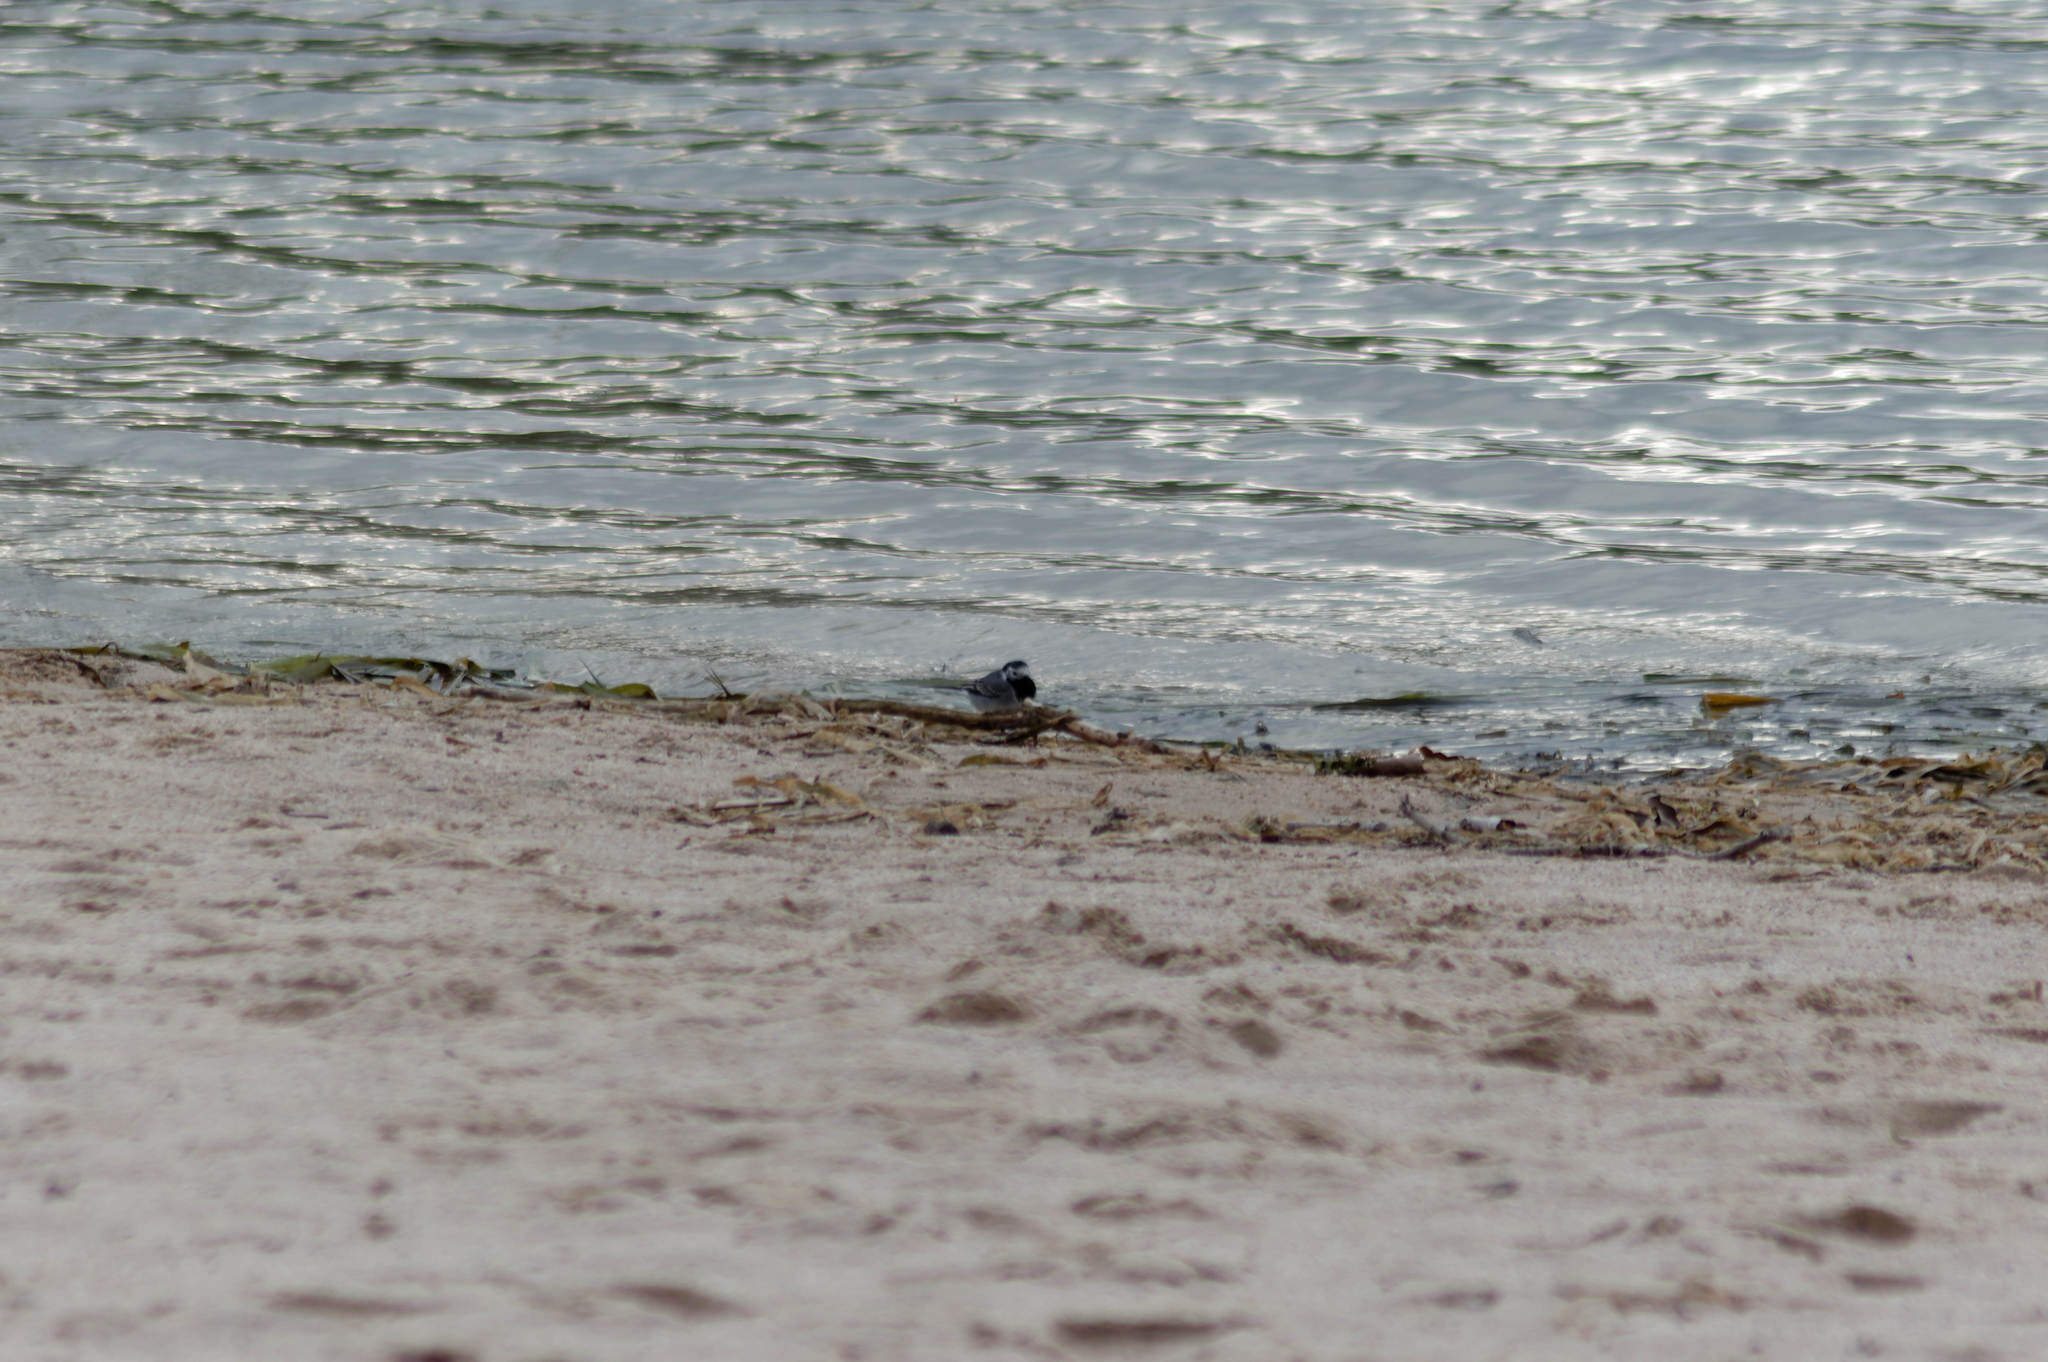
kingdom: Animalia
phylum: Chordata
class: Aves
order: Passeriformes
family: Motacillidae
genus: Motacilla
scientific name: Motacilla alba
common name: White wagtail
